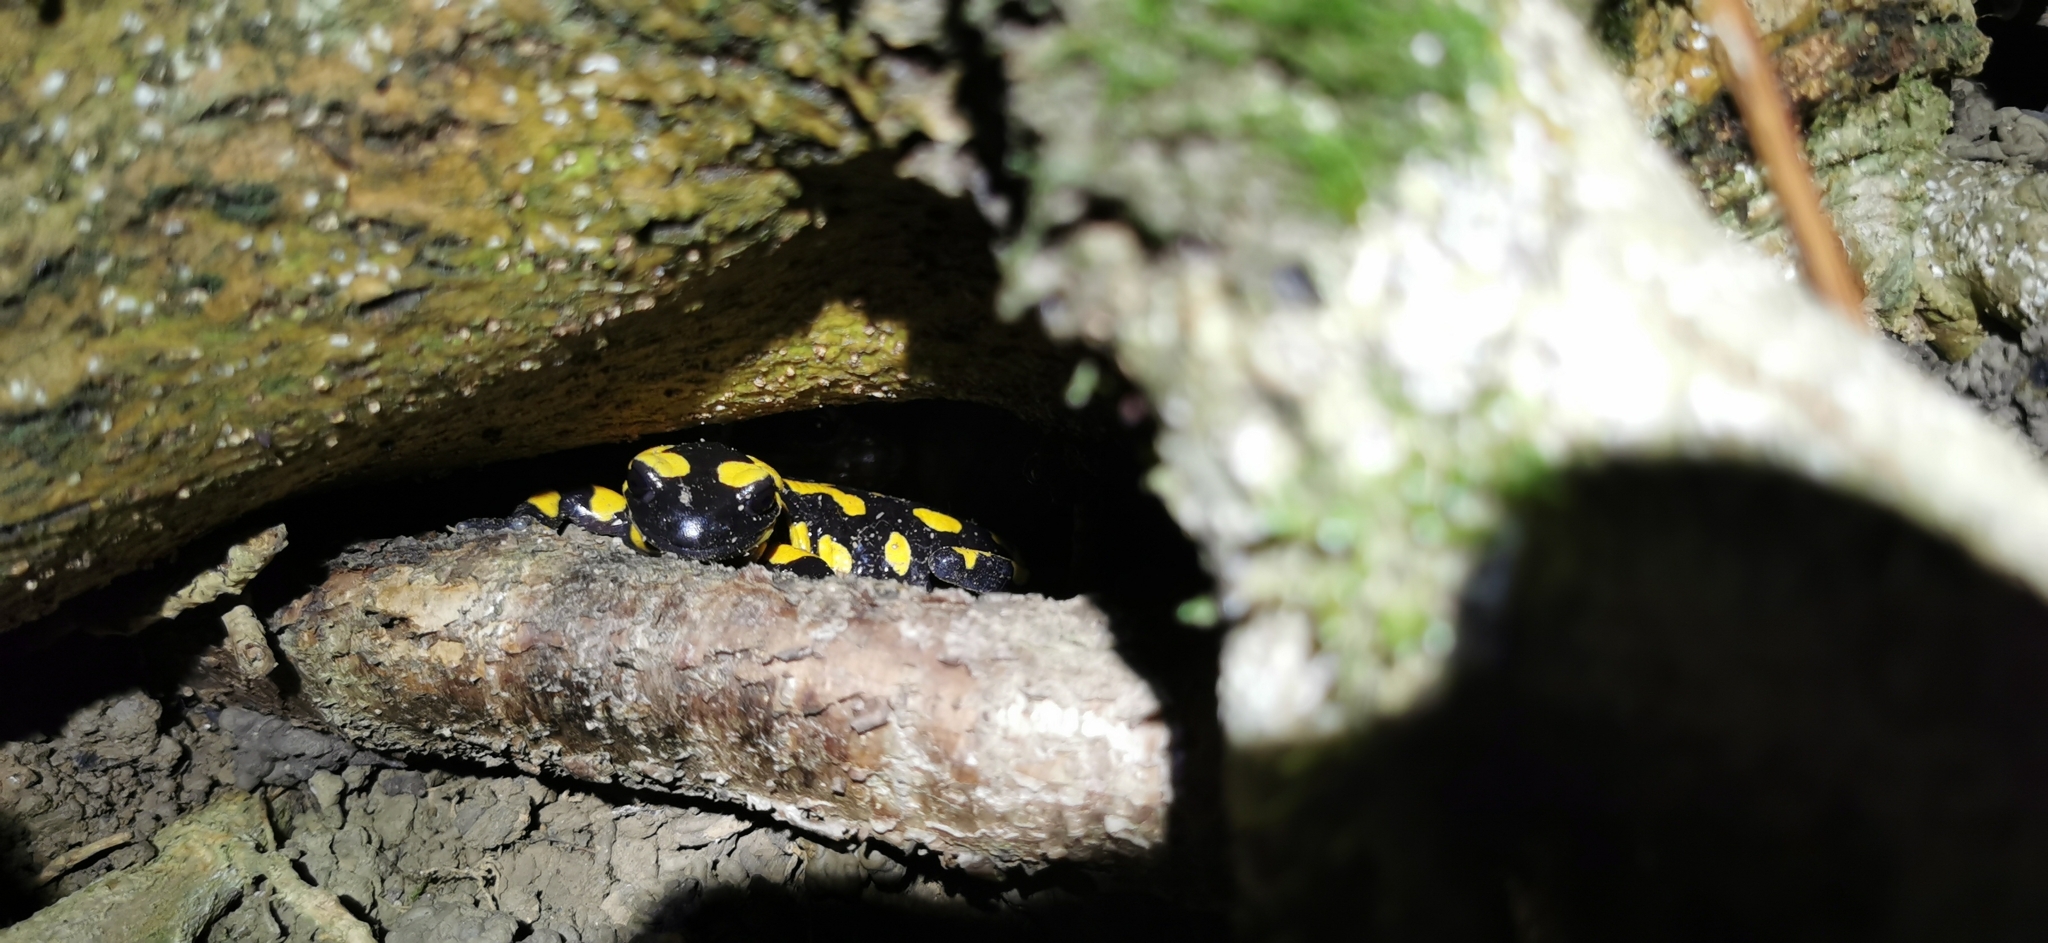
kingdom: Animalia
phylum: Chordata
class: Amphibia
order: Caudata
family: Salamandridae
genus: Salamandra
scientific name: Salamandra salamandra
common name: Fire salamander
